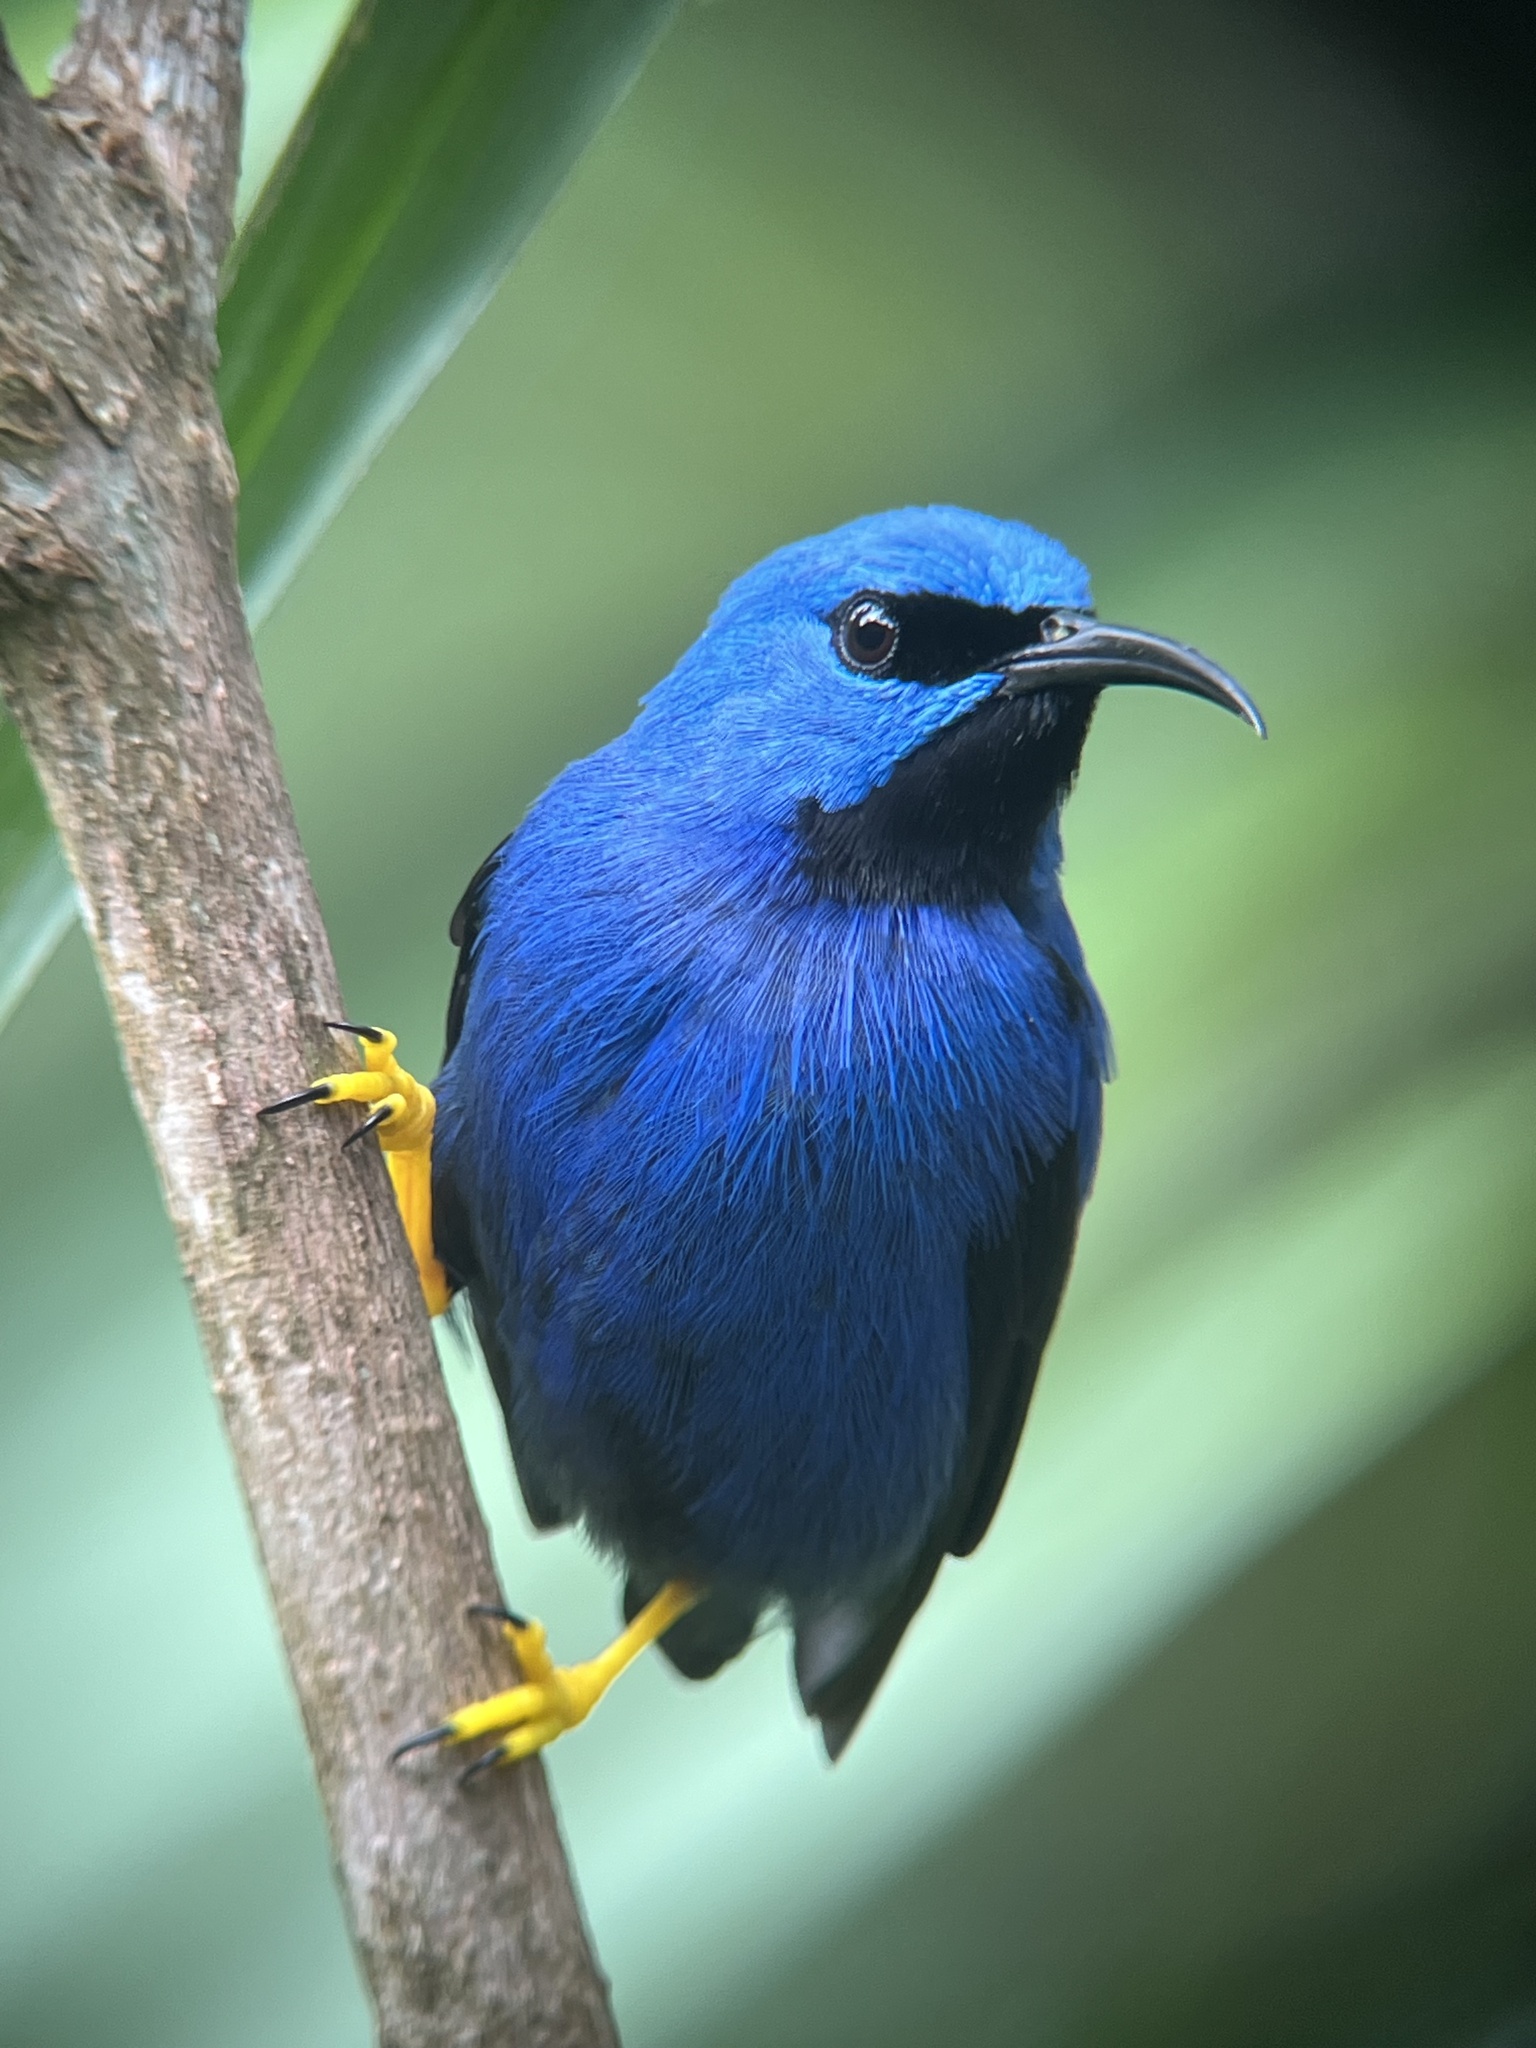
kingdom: Animalia
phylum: Chordata
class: Aves
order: Passeriformes
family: Thraupidae
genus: Cyanerpes
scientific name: Cyanerpes lucidus
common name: Shining honeycreeper
